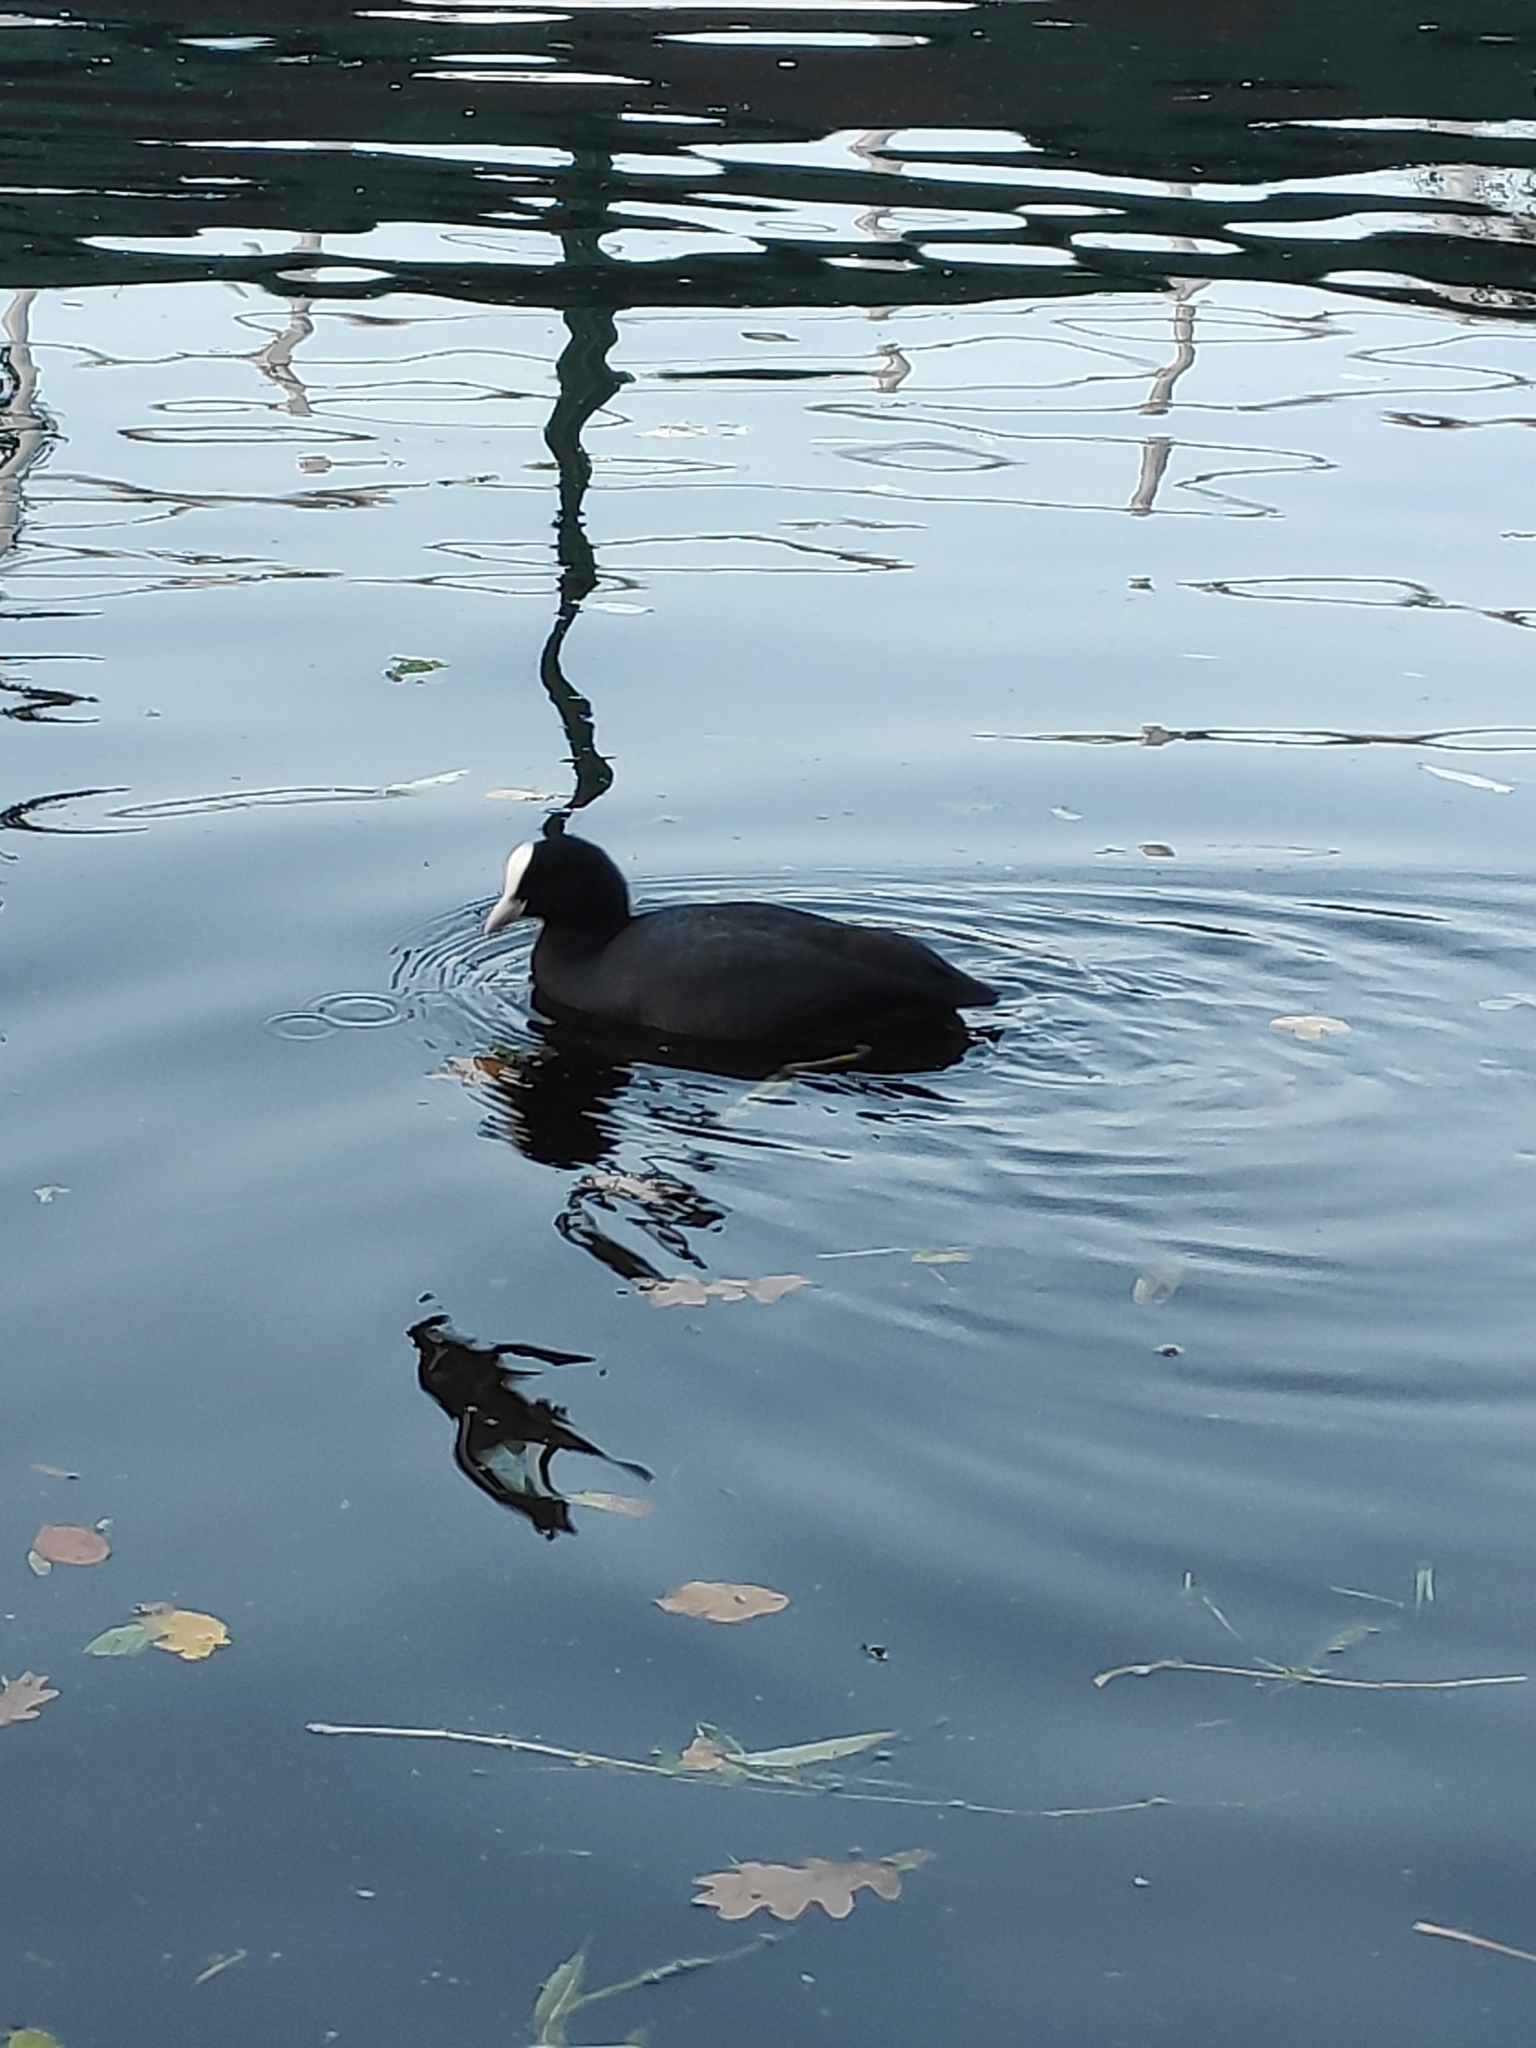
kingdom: Animalia
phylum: Chordata
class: Aves
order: Gruiformes
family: Rallidae
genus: Fulica
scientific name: Fulica atra
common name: Eurasian coot
